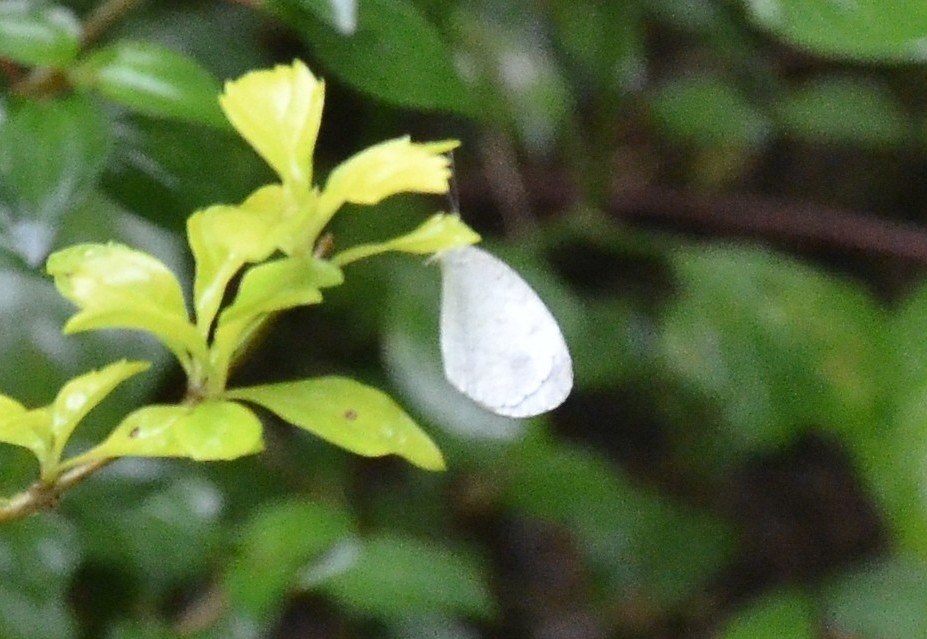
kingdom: Animalia
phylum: Arthropoda
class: Insecta
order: Lepidoptera
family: Pieridae
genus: Leptosia
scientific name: Leptosia nina
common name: Psyche
